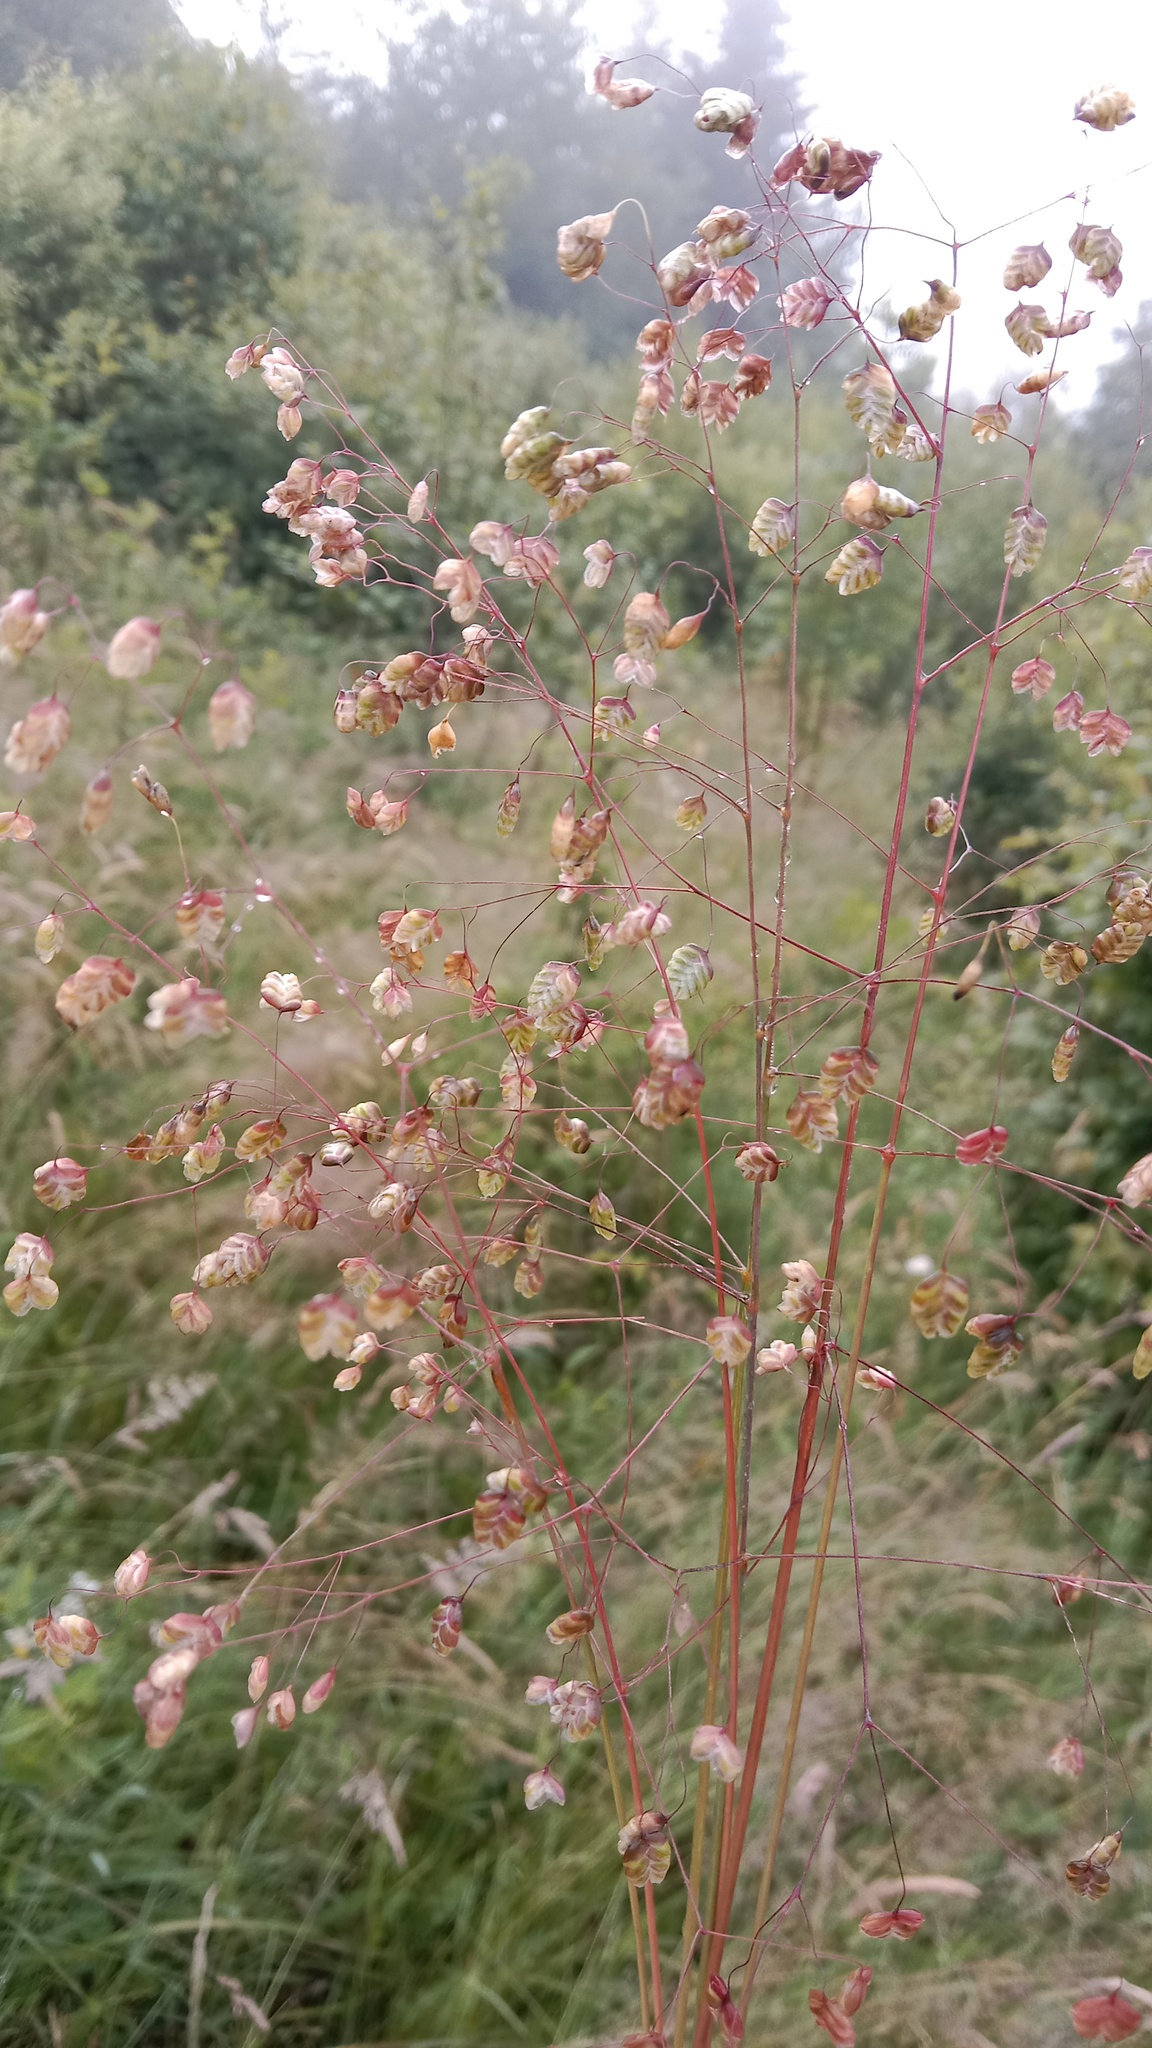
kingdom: Plantae
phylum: Tracheophyta
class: Liliopsida
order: Poales
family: Poaceae
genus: Briza
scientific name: Briza media
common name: Quaking grass
